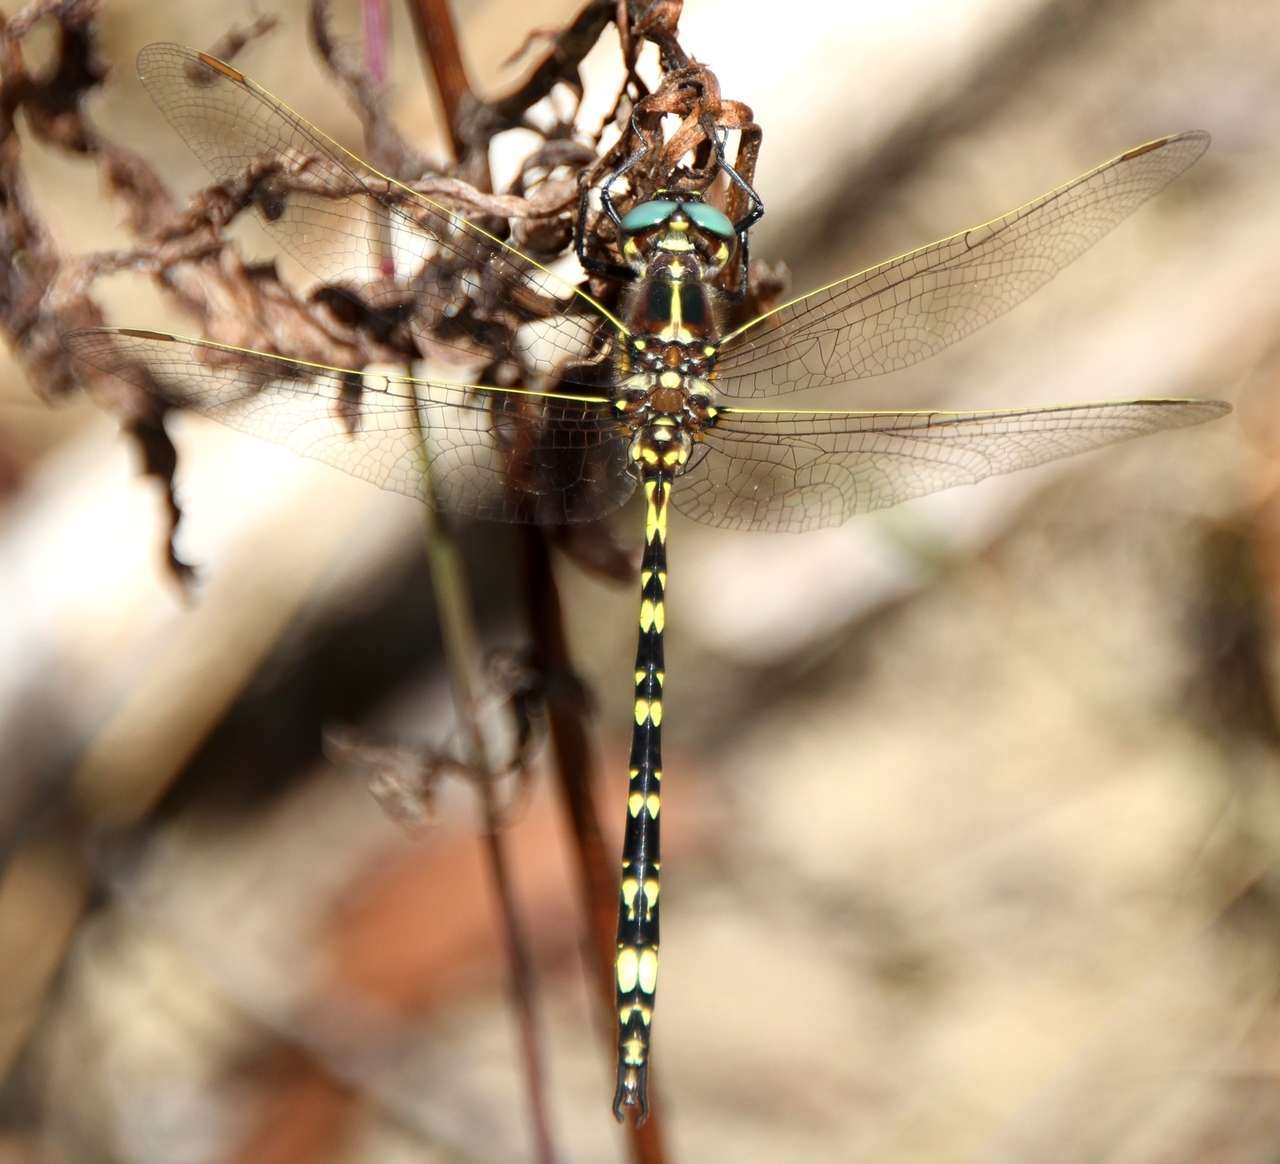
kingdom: Animalia
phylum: Arthropoda
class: Insecta
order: Odonata
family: Synthemistidae
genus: Synthemis
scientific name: Synthemis eustalacta
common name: Swamp tigertail
